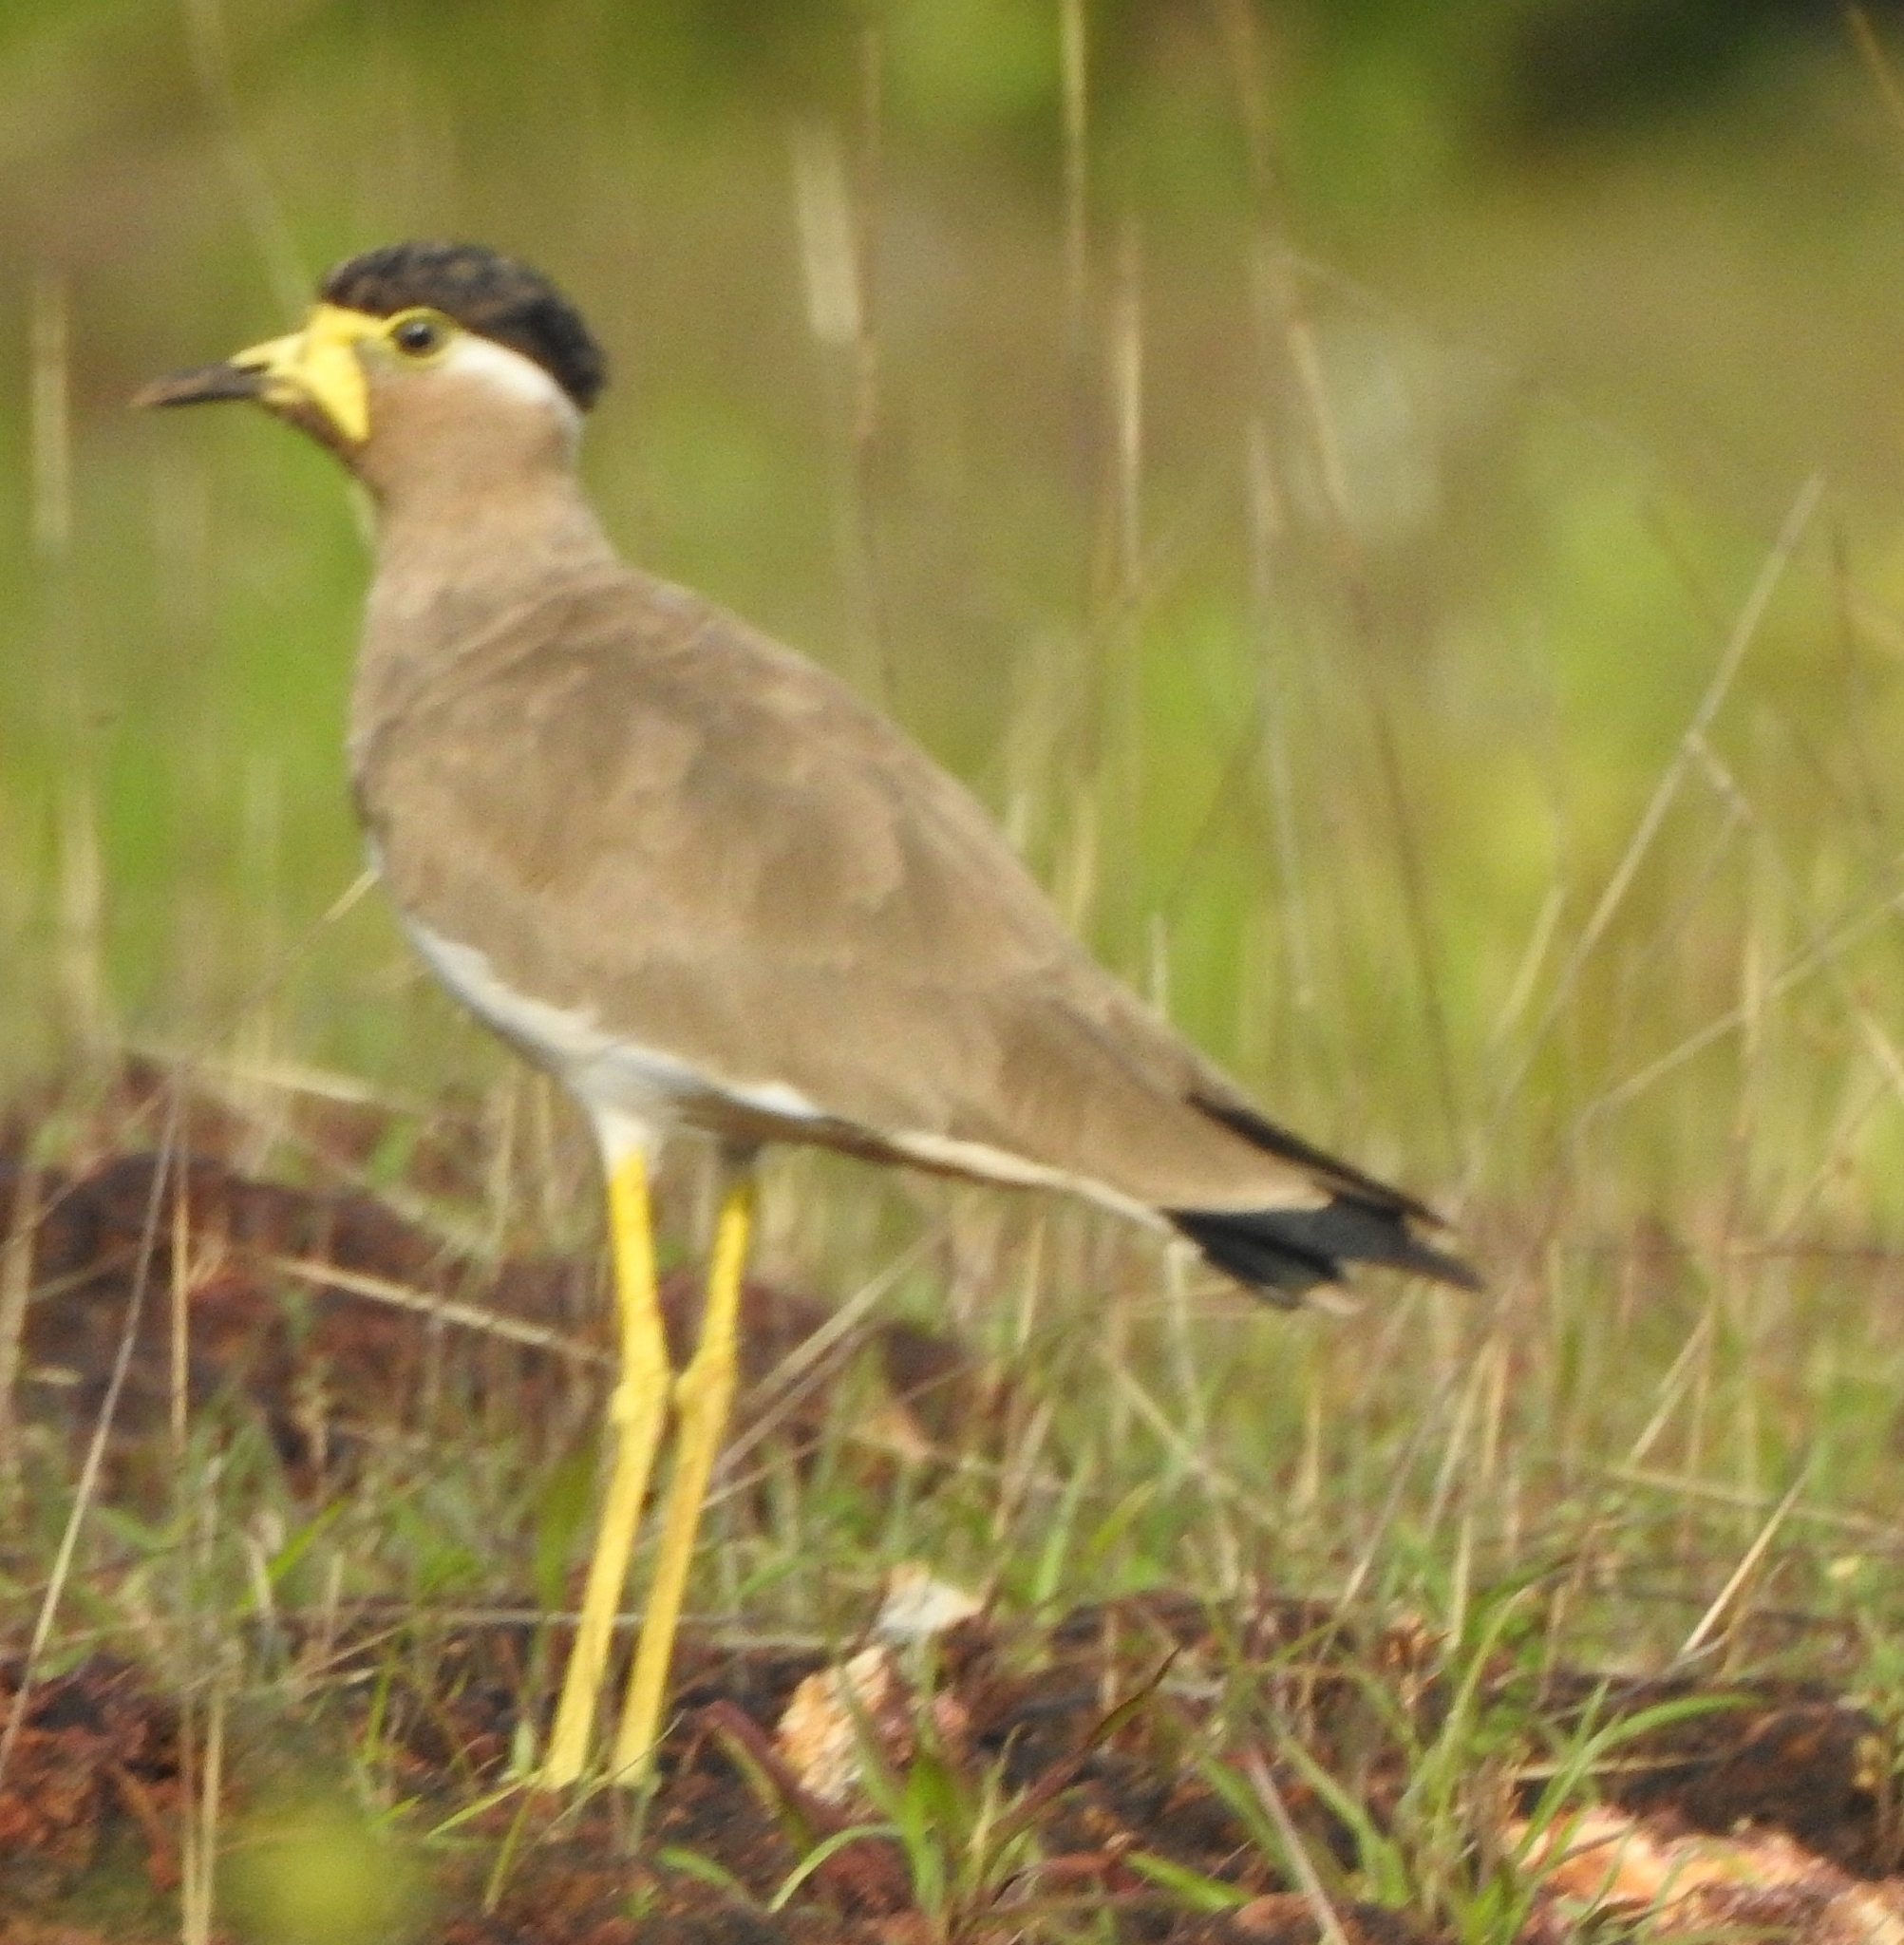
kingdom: Animalia
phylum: Chordata
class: Aves
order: Charadriiformes
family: Charadriidae
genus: Vanellus
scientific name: Vanellus malabaricus
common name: Yellow-wattled lapwing
